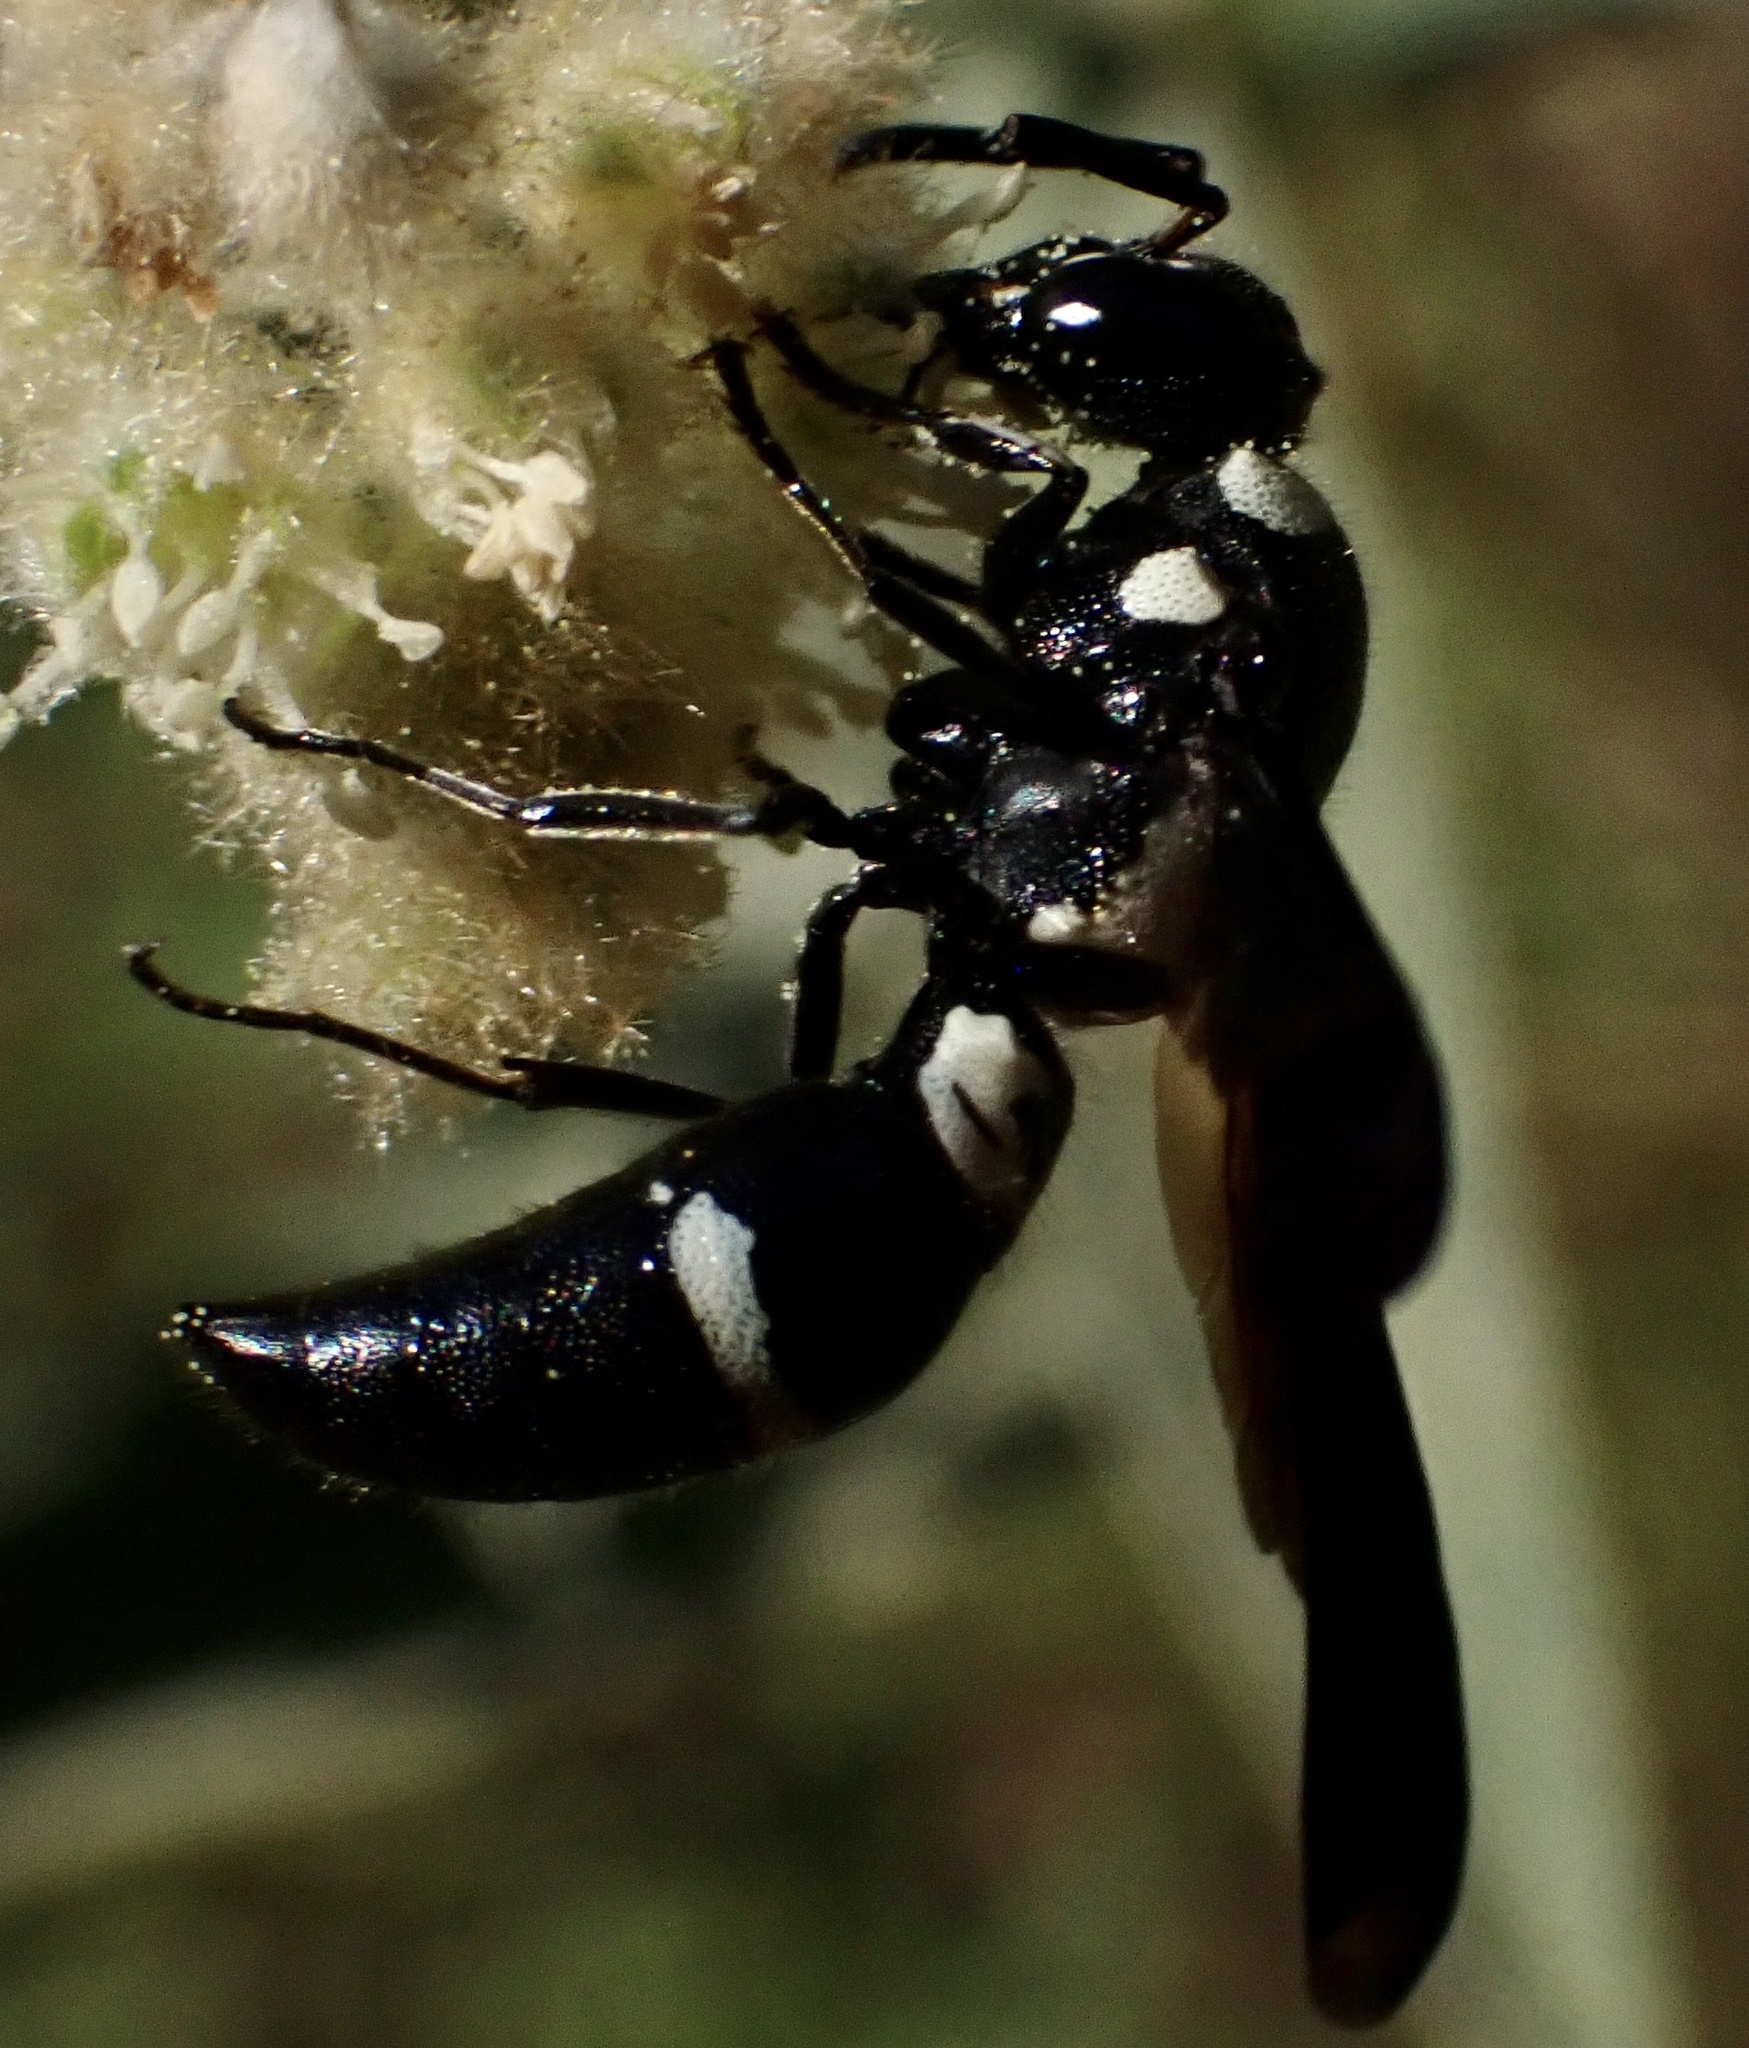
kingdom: Animalia
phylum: Arthropoda
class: Insecta
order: Hymenoptera
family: Eumenidae
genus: Pseudodynerus
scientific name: Pseudodynerus quadrisectus
